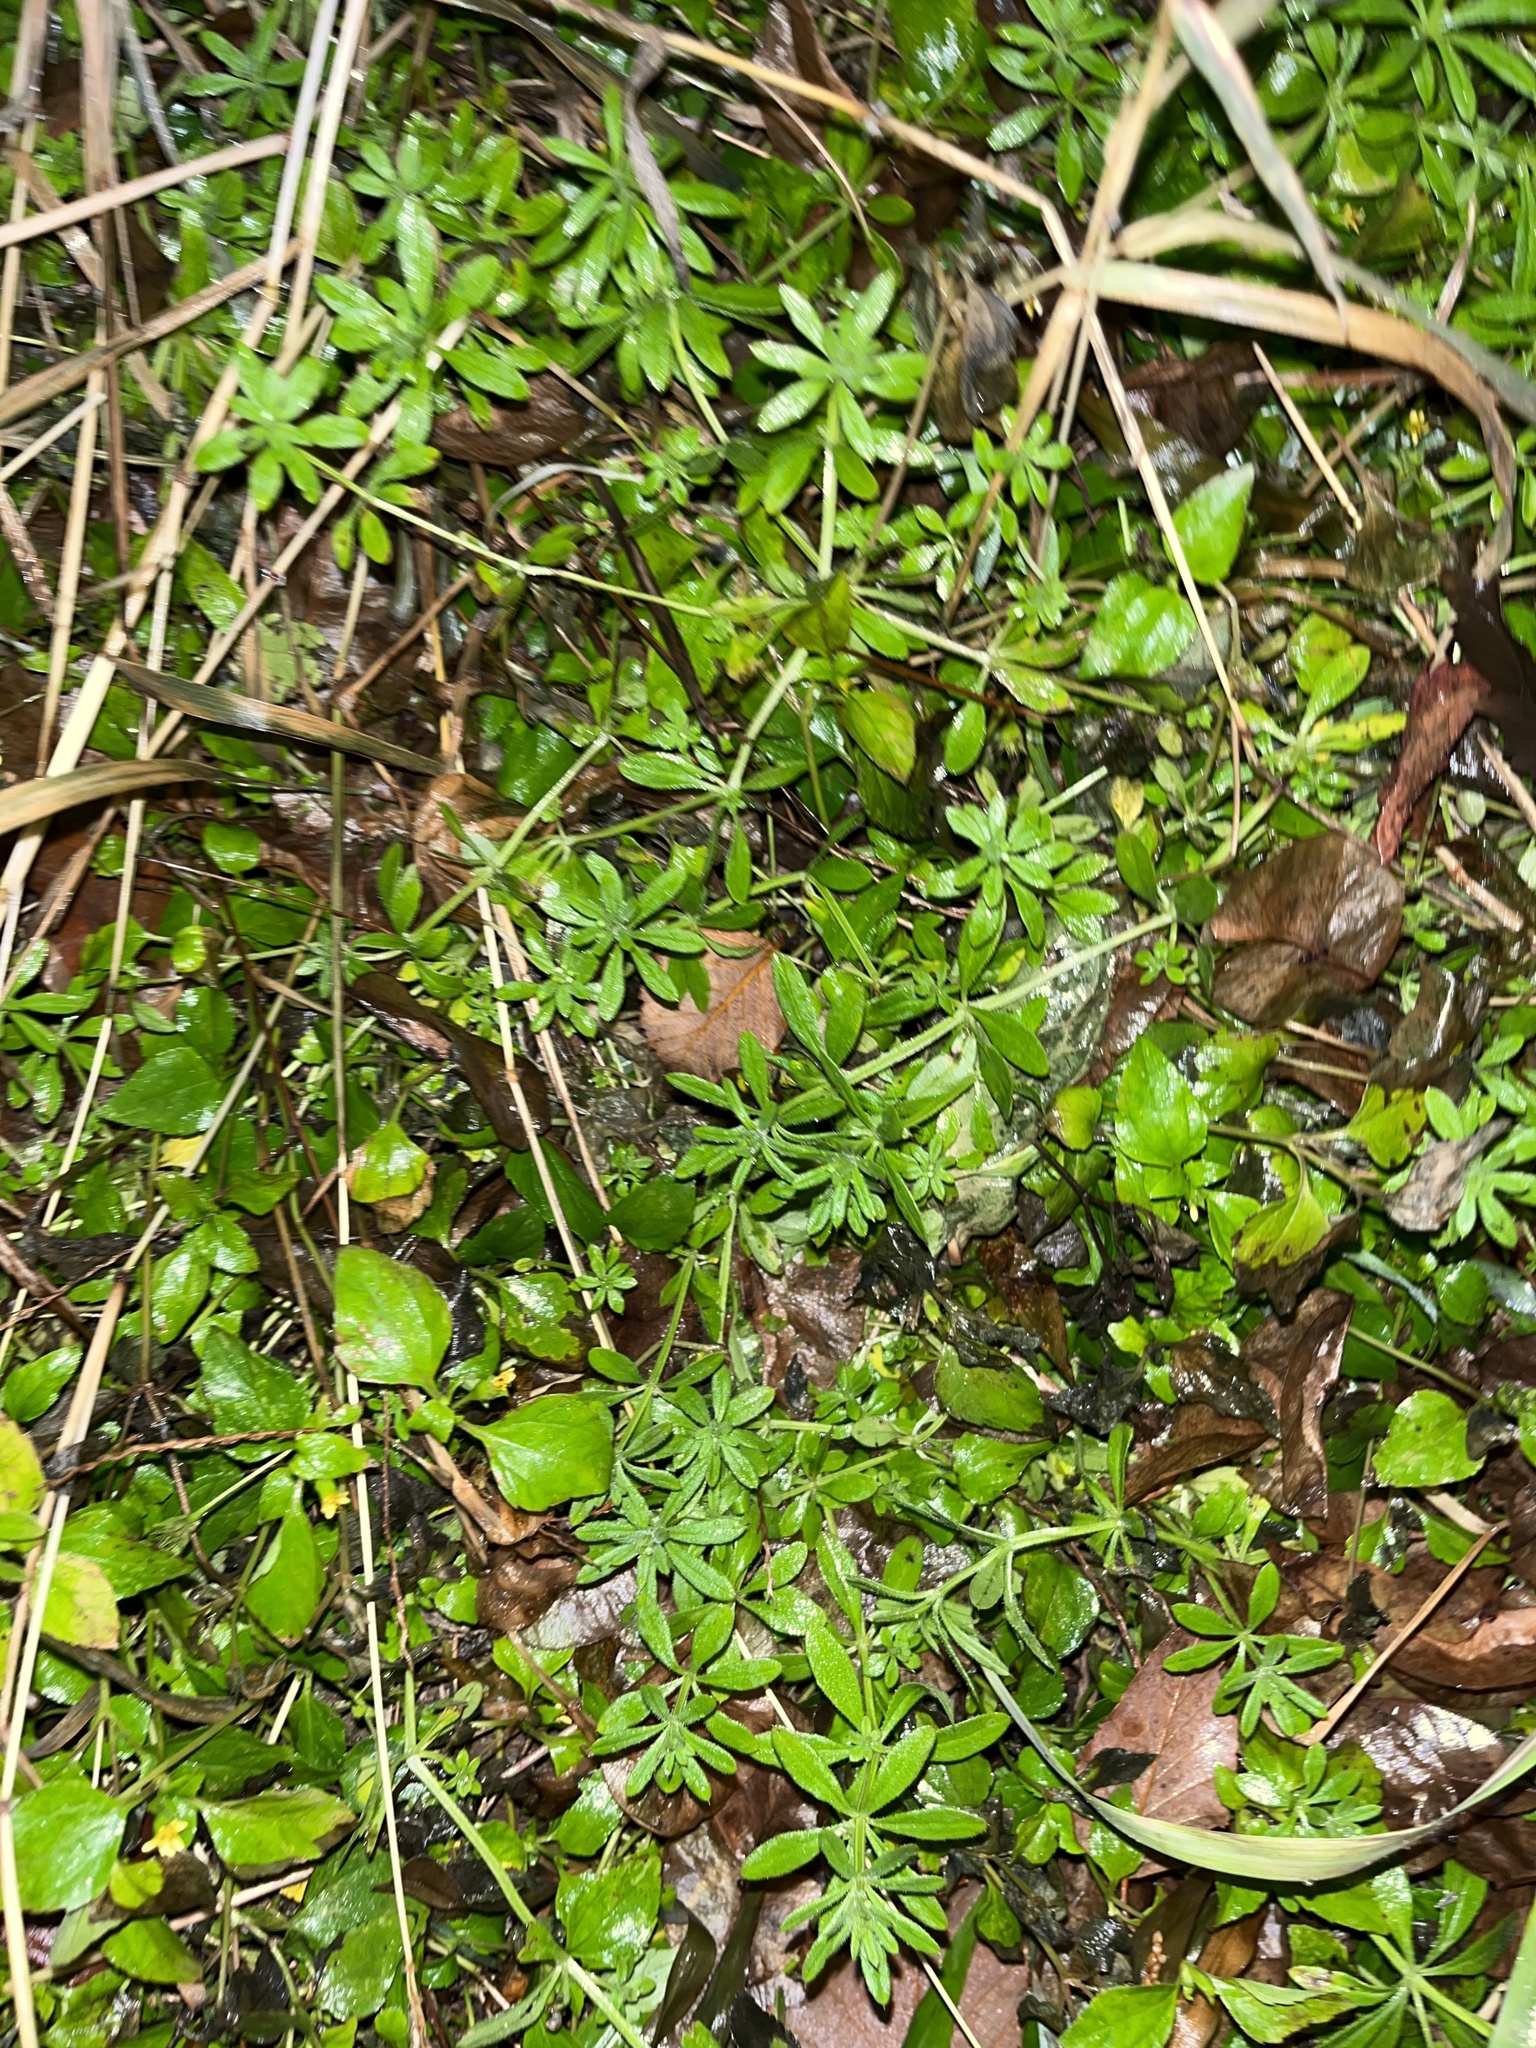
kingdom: Plantae
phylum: Tracheophyta
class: Magnoliopsida
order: Gentianales
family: Rubiaceae
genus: Galium
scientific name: Galium aparine
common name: Cleavers
